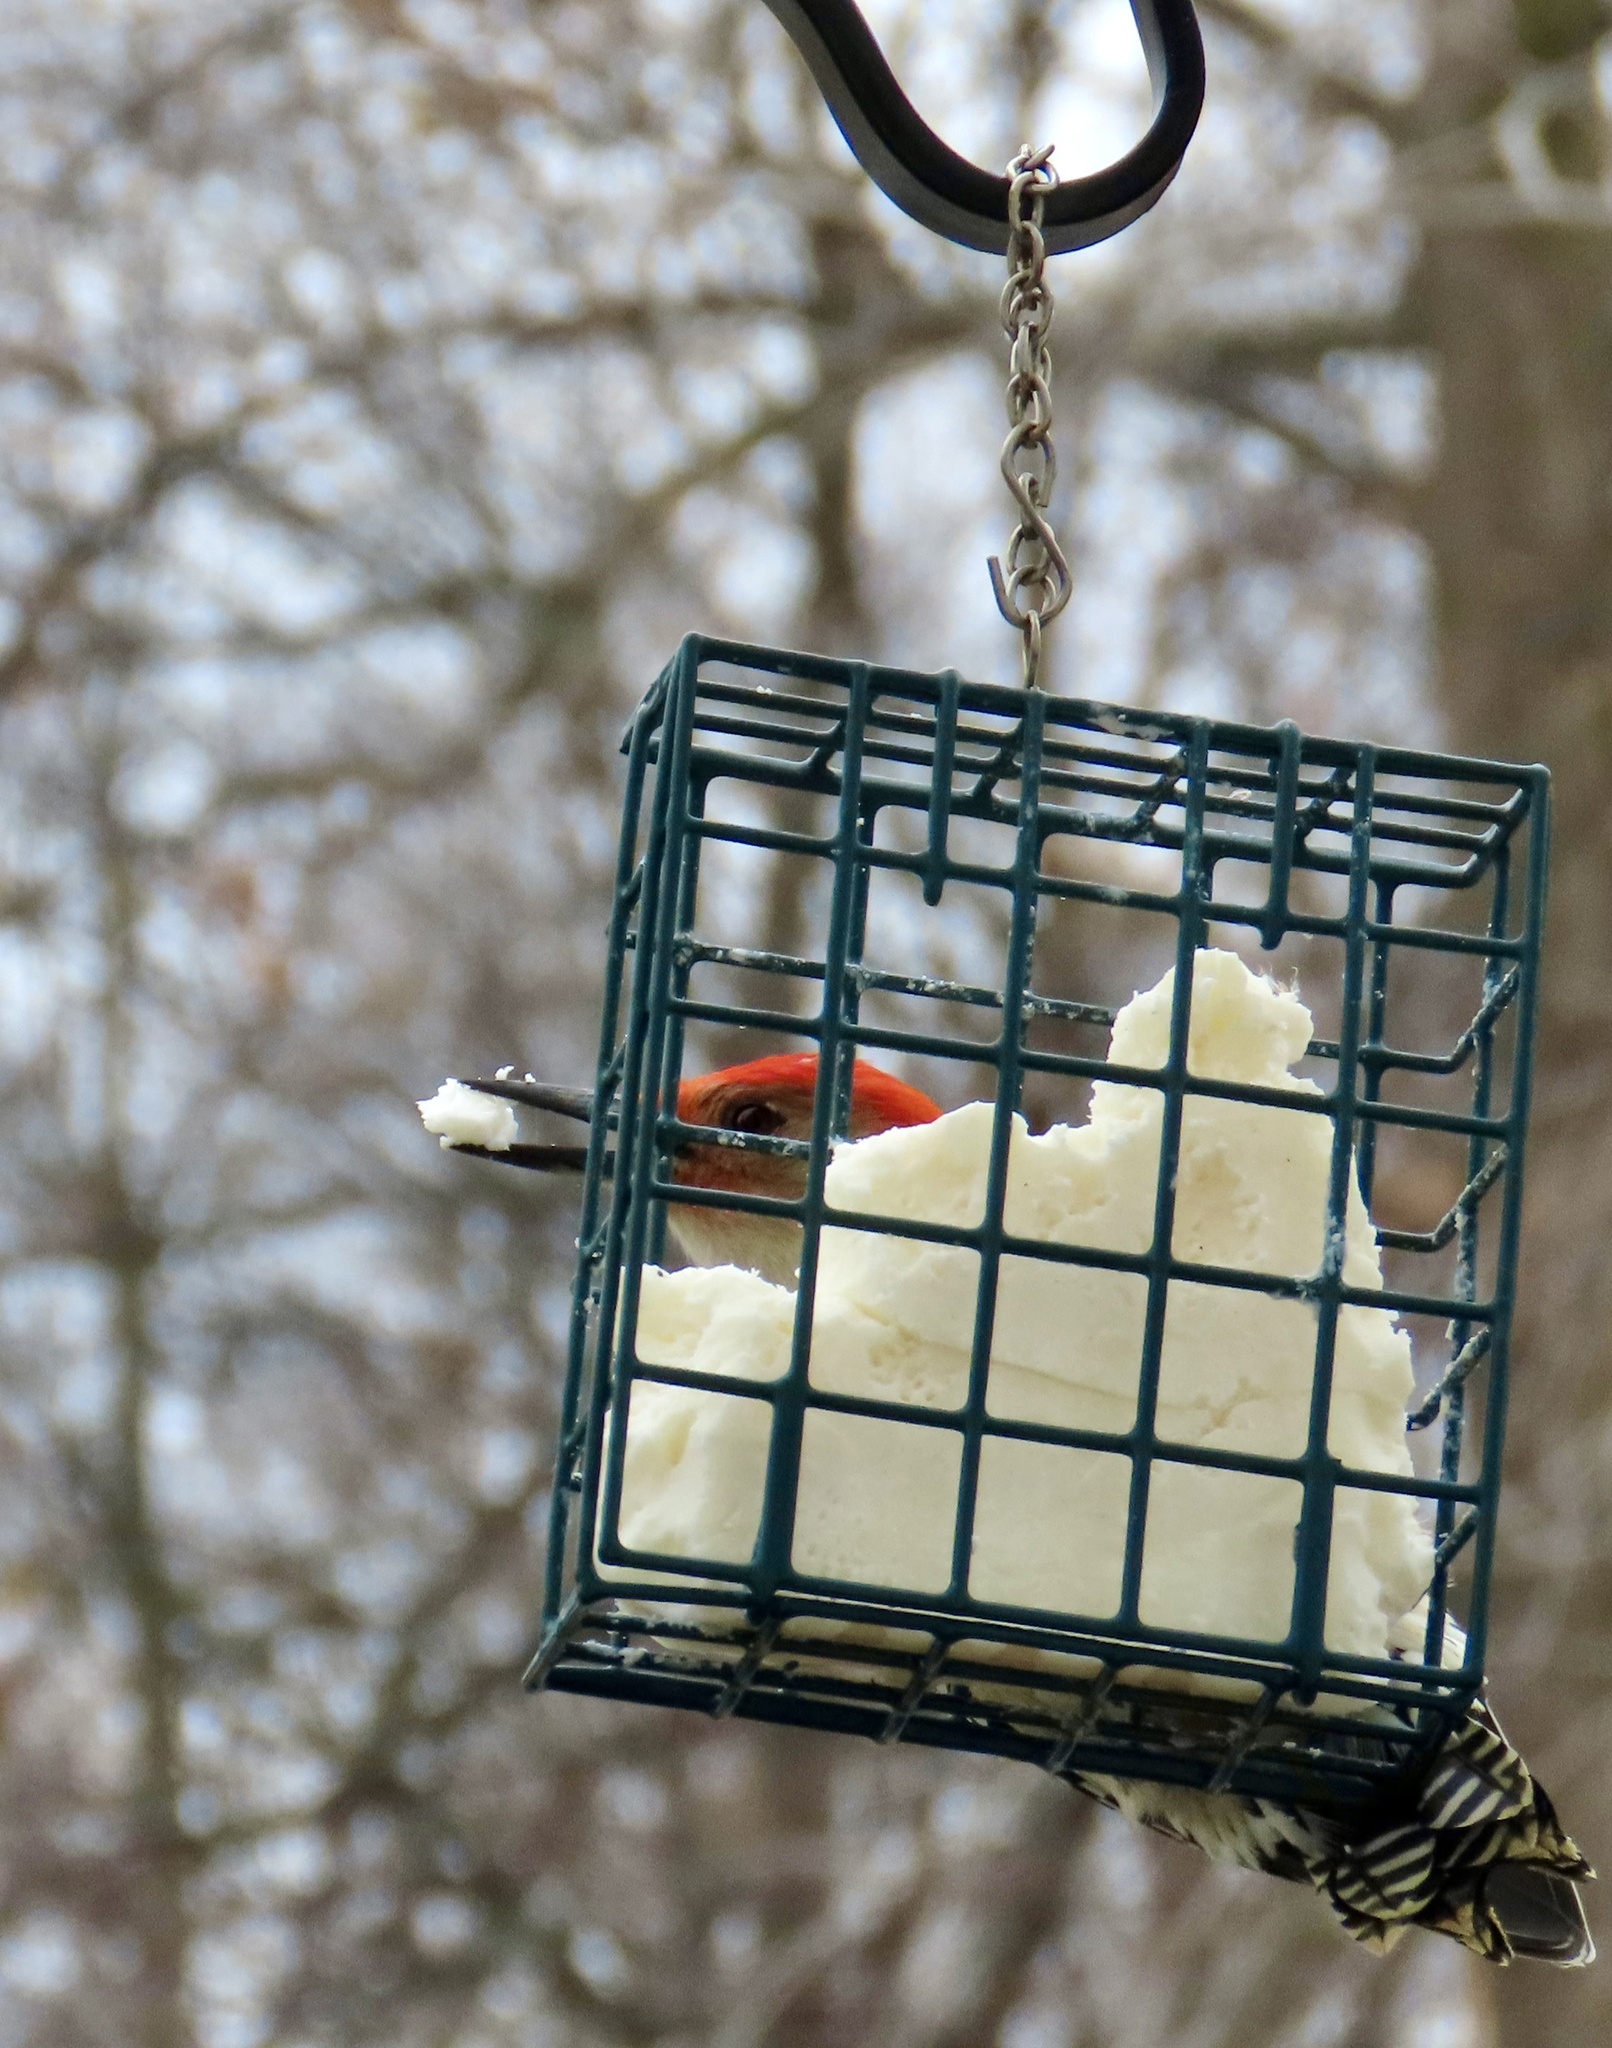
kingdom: Animalia
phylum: Chordata
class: Aves
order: Piciformes
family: Picidae
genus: Melanerpes
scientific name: Melanerpes carolinus
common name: Red-bellied woodpecker
